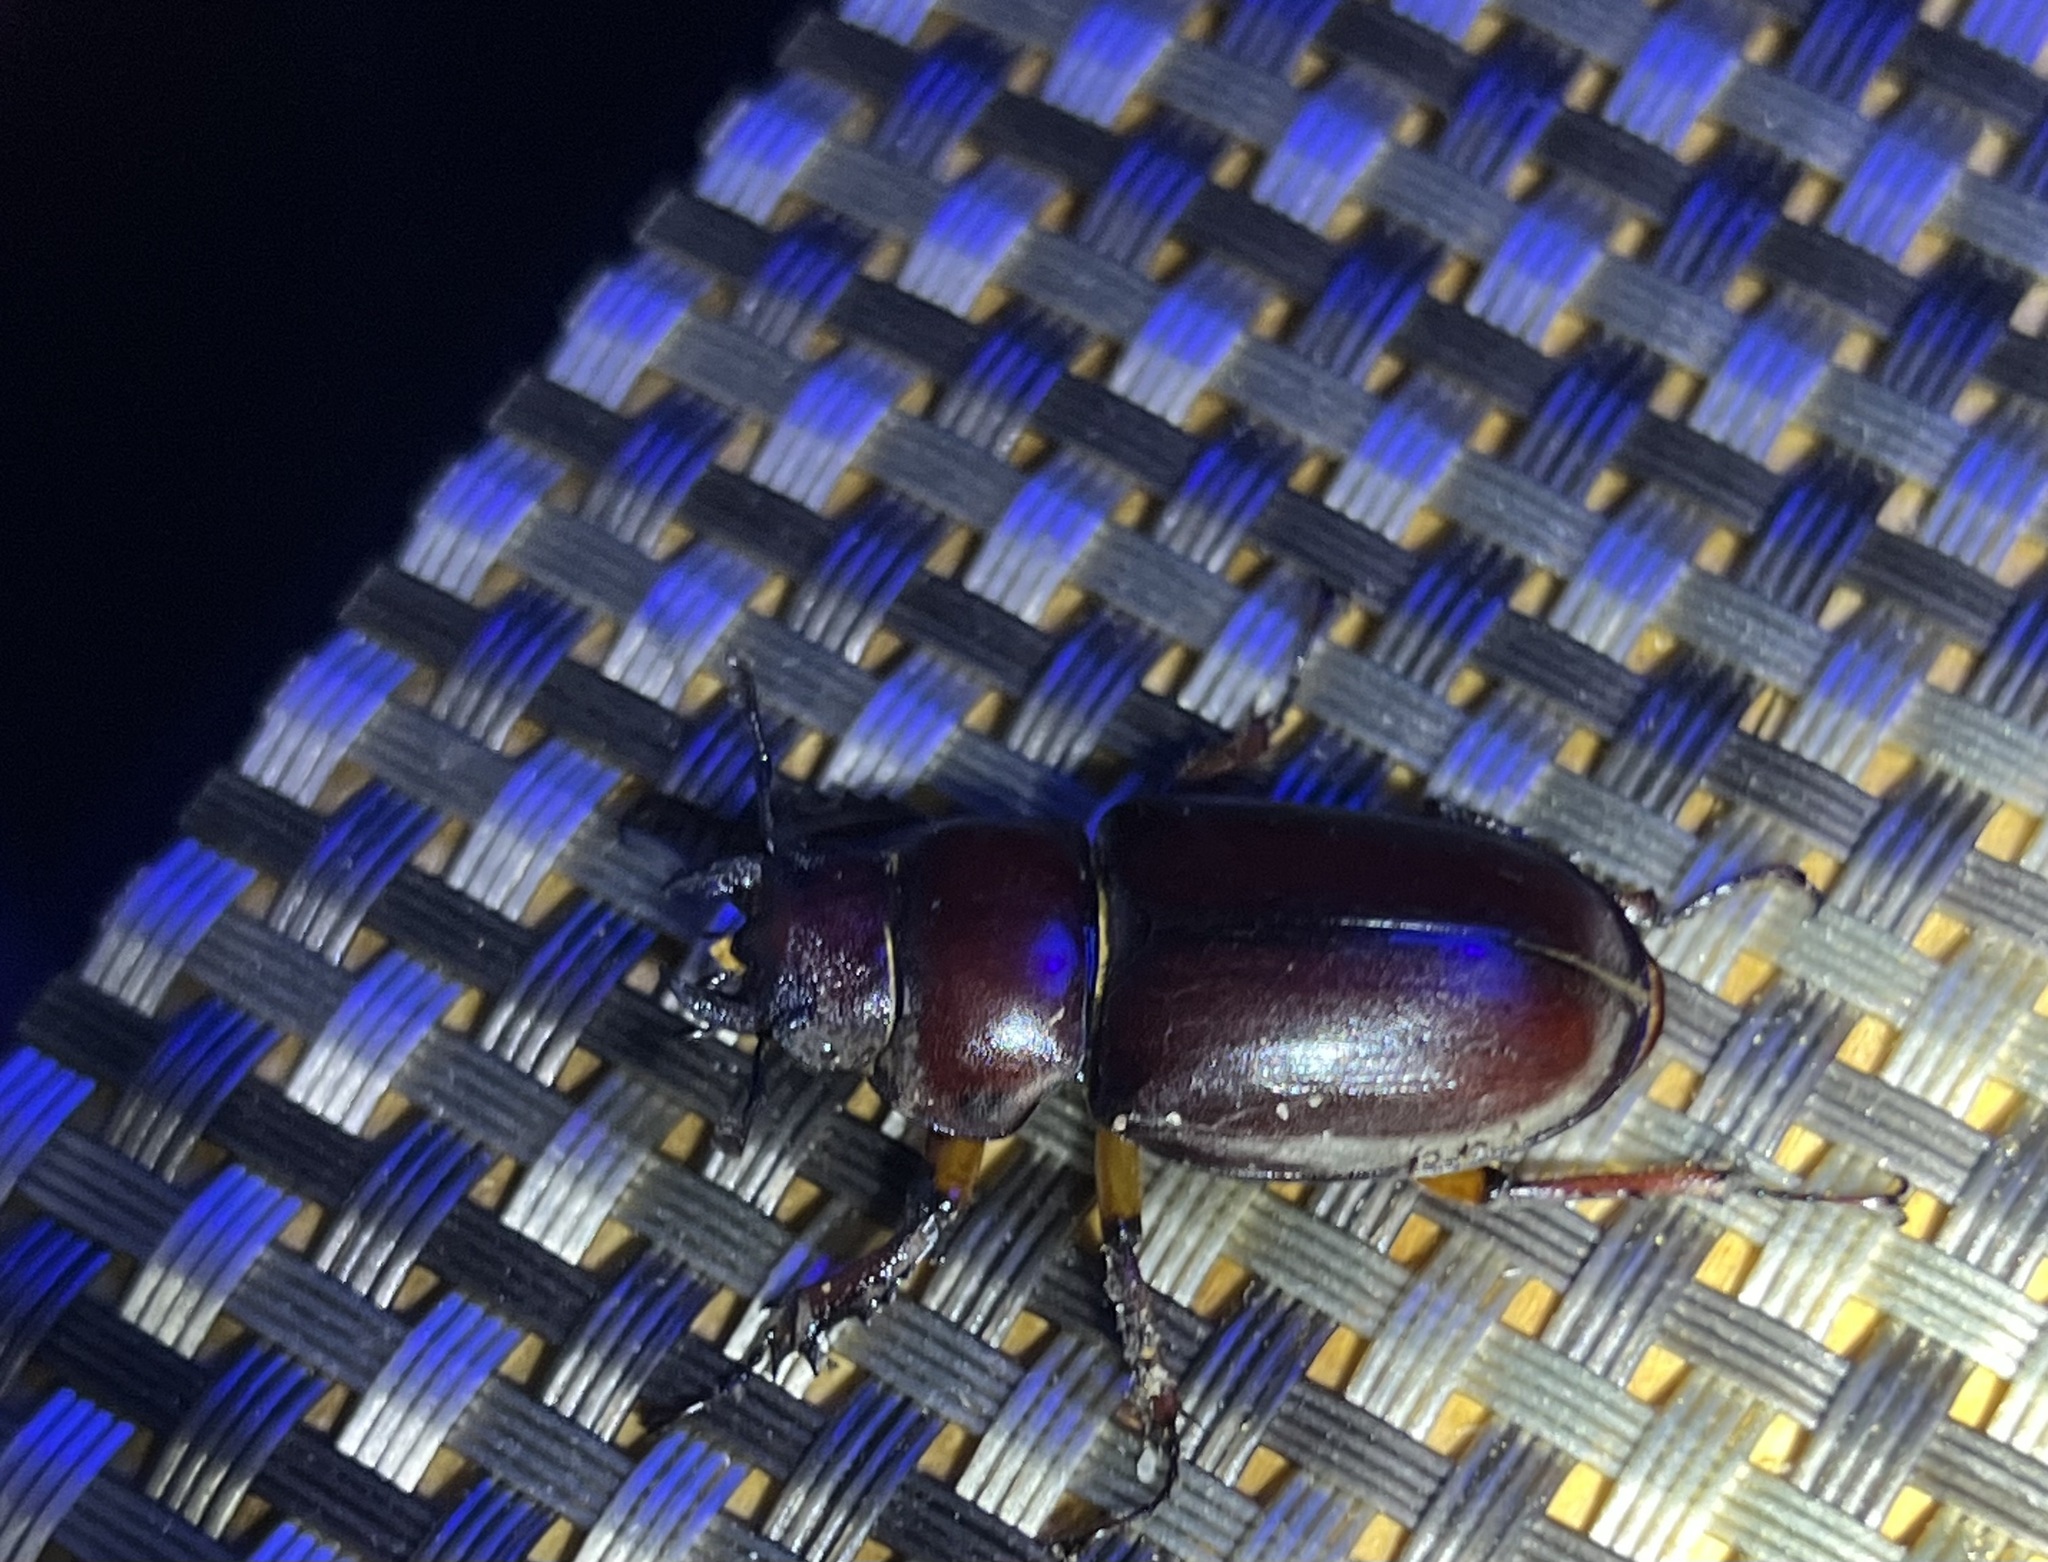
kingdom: Animalia
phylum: Arthropoda
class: Insecta
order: Coleoptera
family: Lucanidae
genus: Lucanus
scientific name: Lucanus capreolus
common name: Stag beetle
